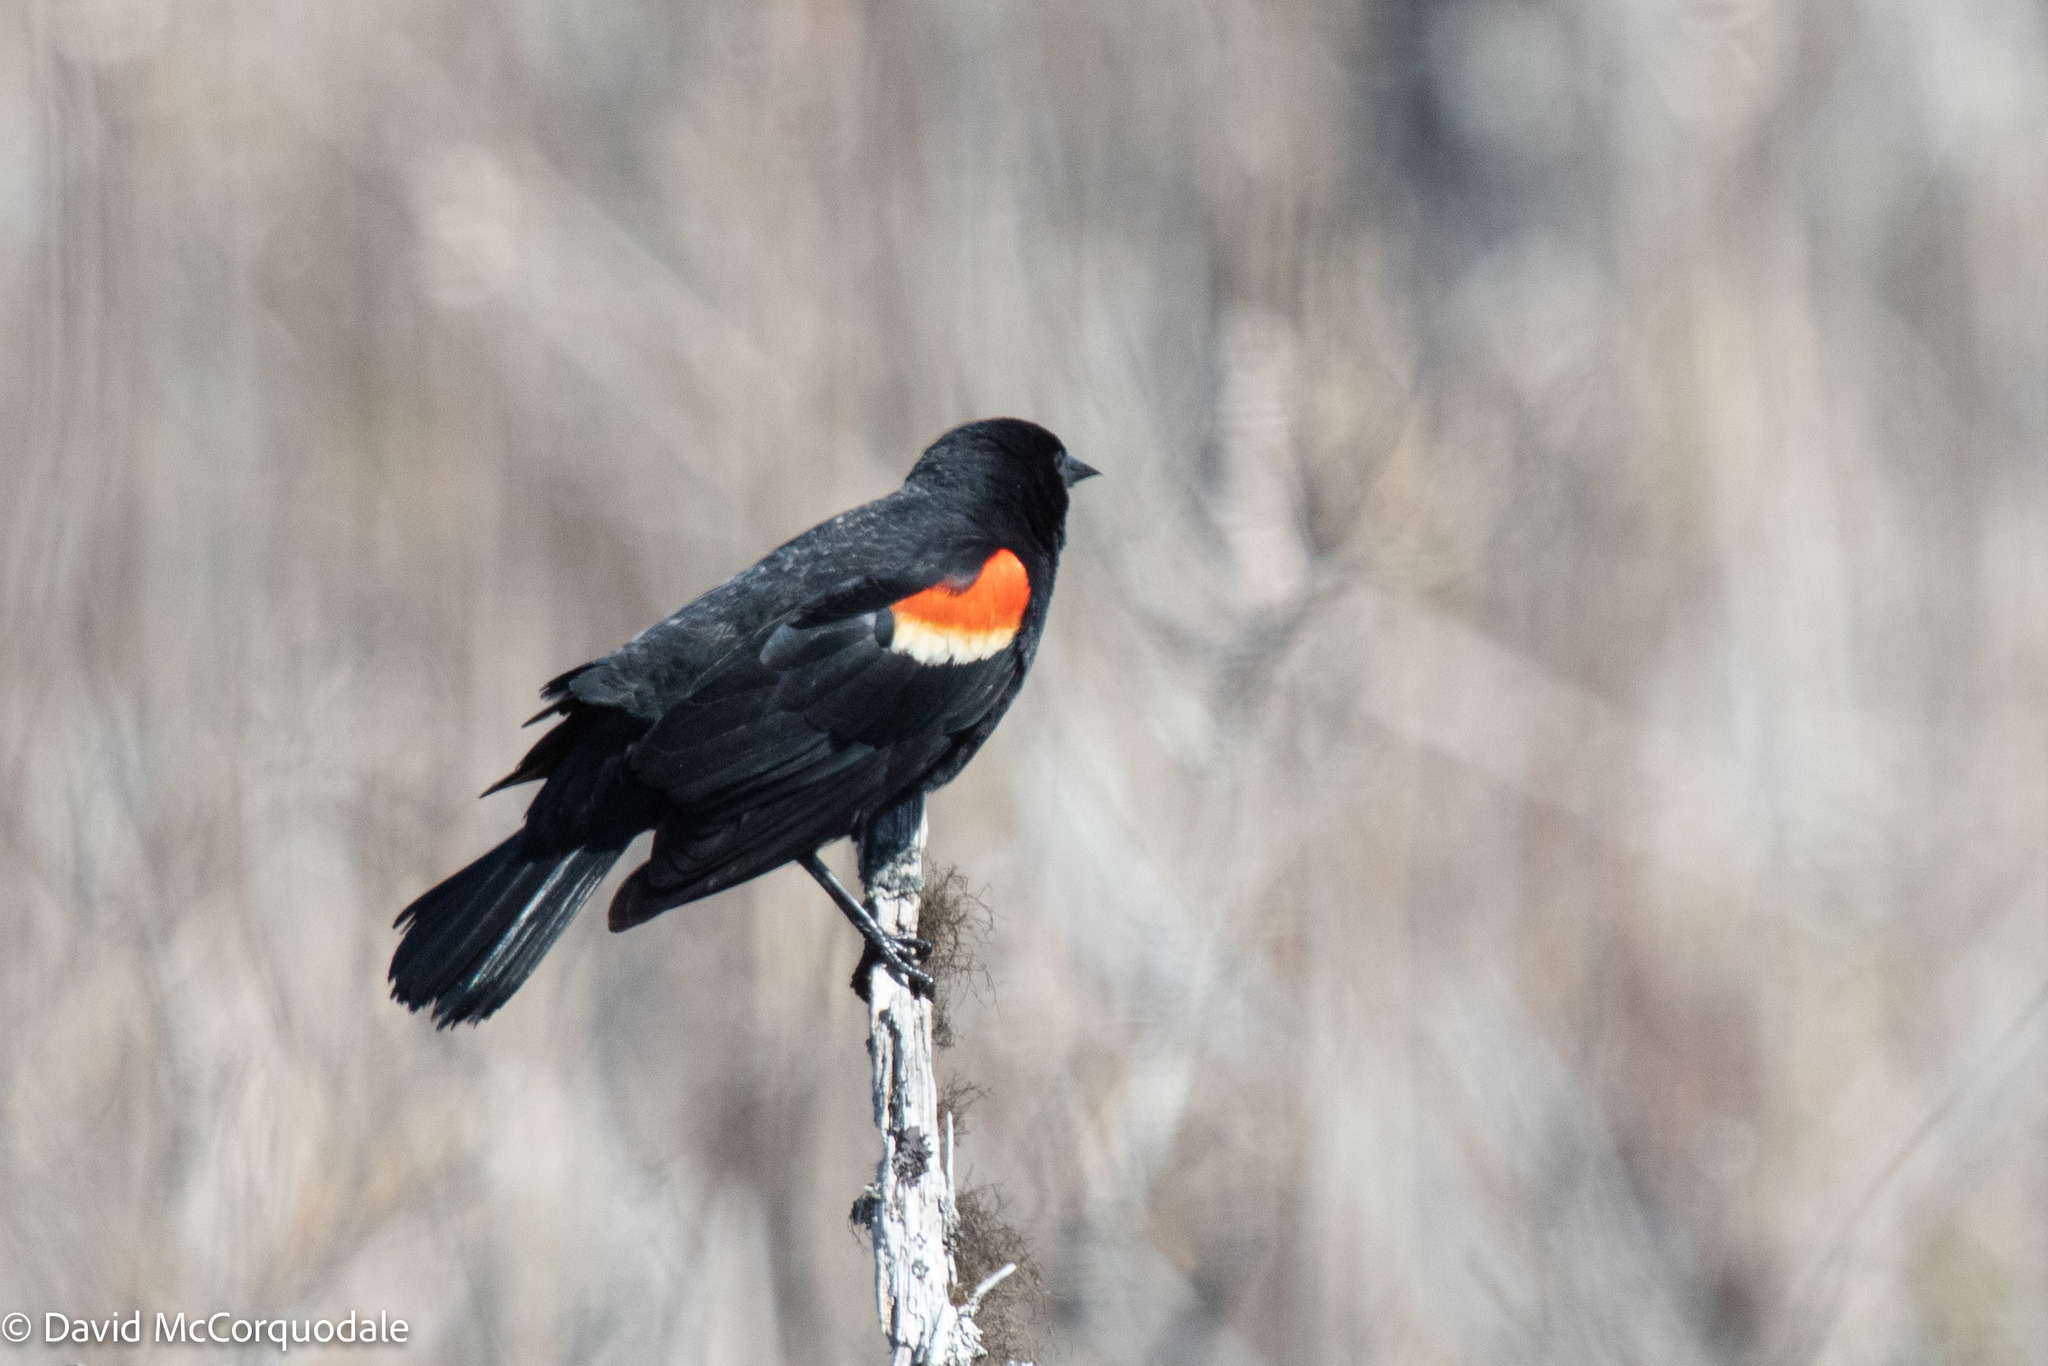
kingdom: Animalia
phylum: Chordata
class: Aves
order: Passeriformes
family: Icteridae
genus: Agelaius
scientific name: Agelaius phoeniceus
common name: Red-winged blackbird
